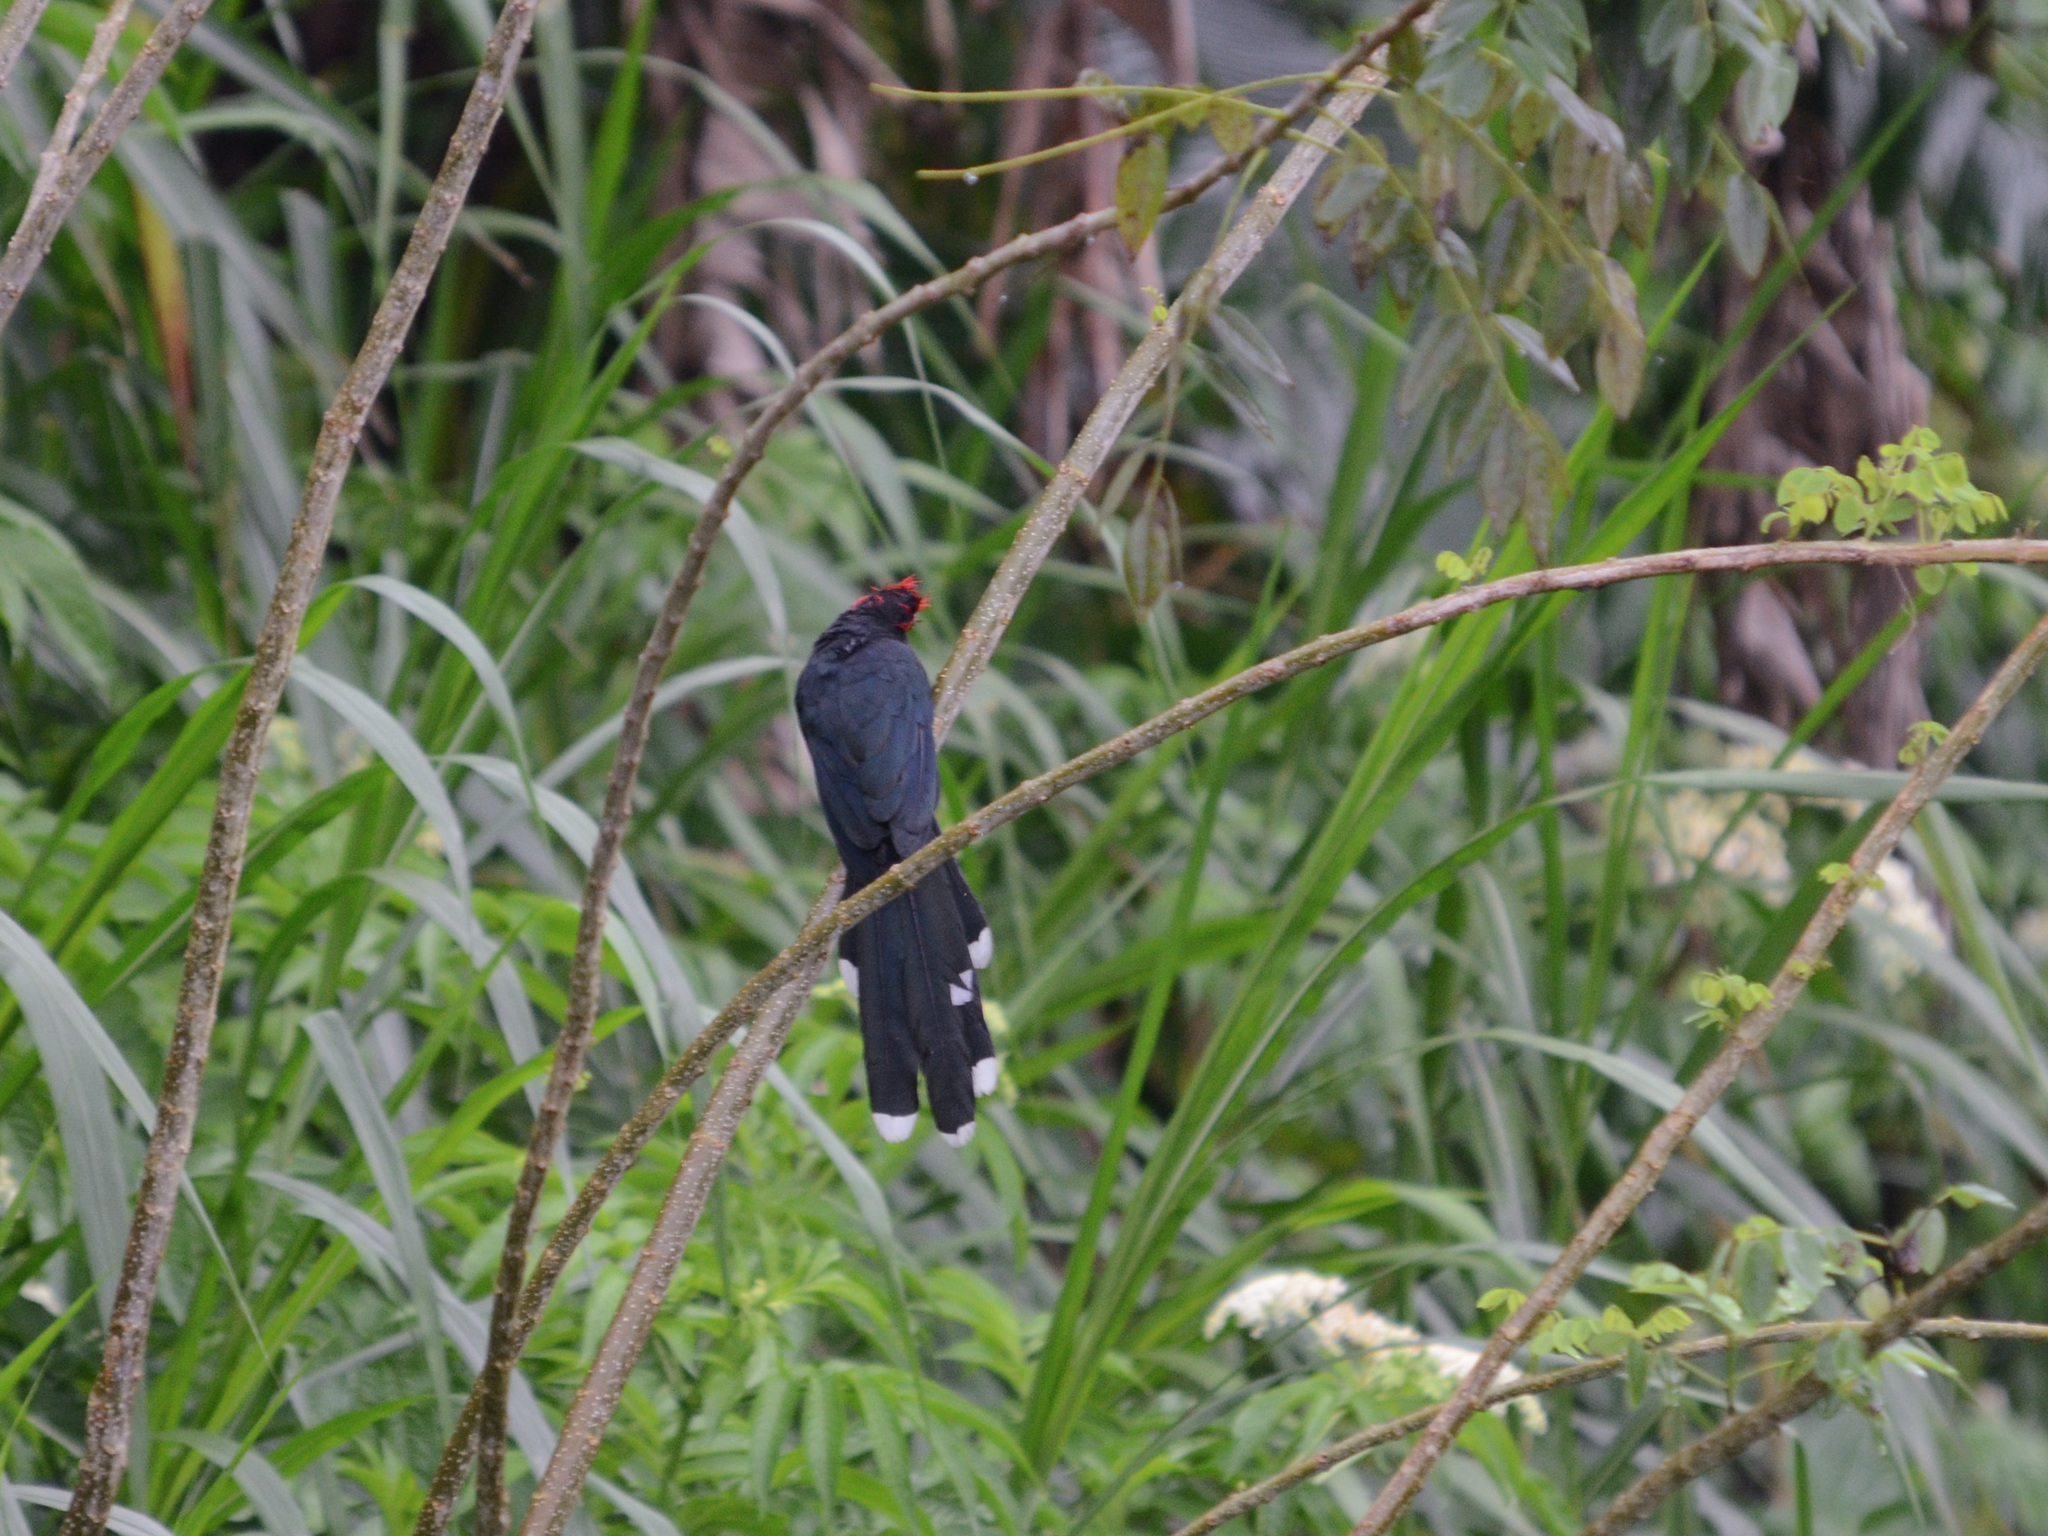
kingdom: Animalia
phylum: Chordata
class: Aves
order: Cuculiformes
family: Cuculidae
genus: Dasylophus
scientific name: Dasylophus superciliosus
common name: Rough-crested malkoha
